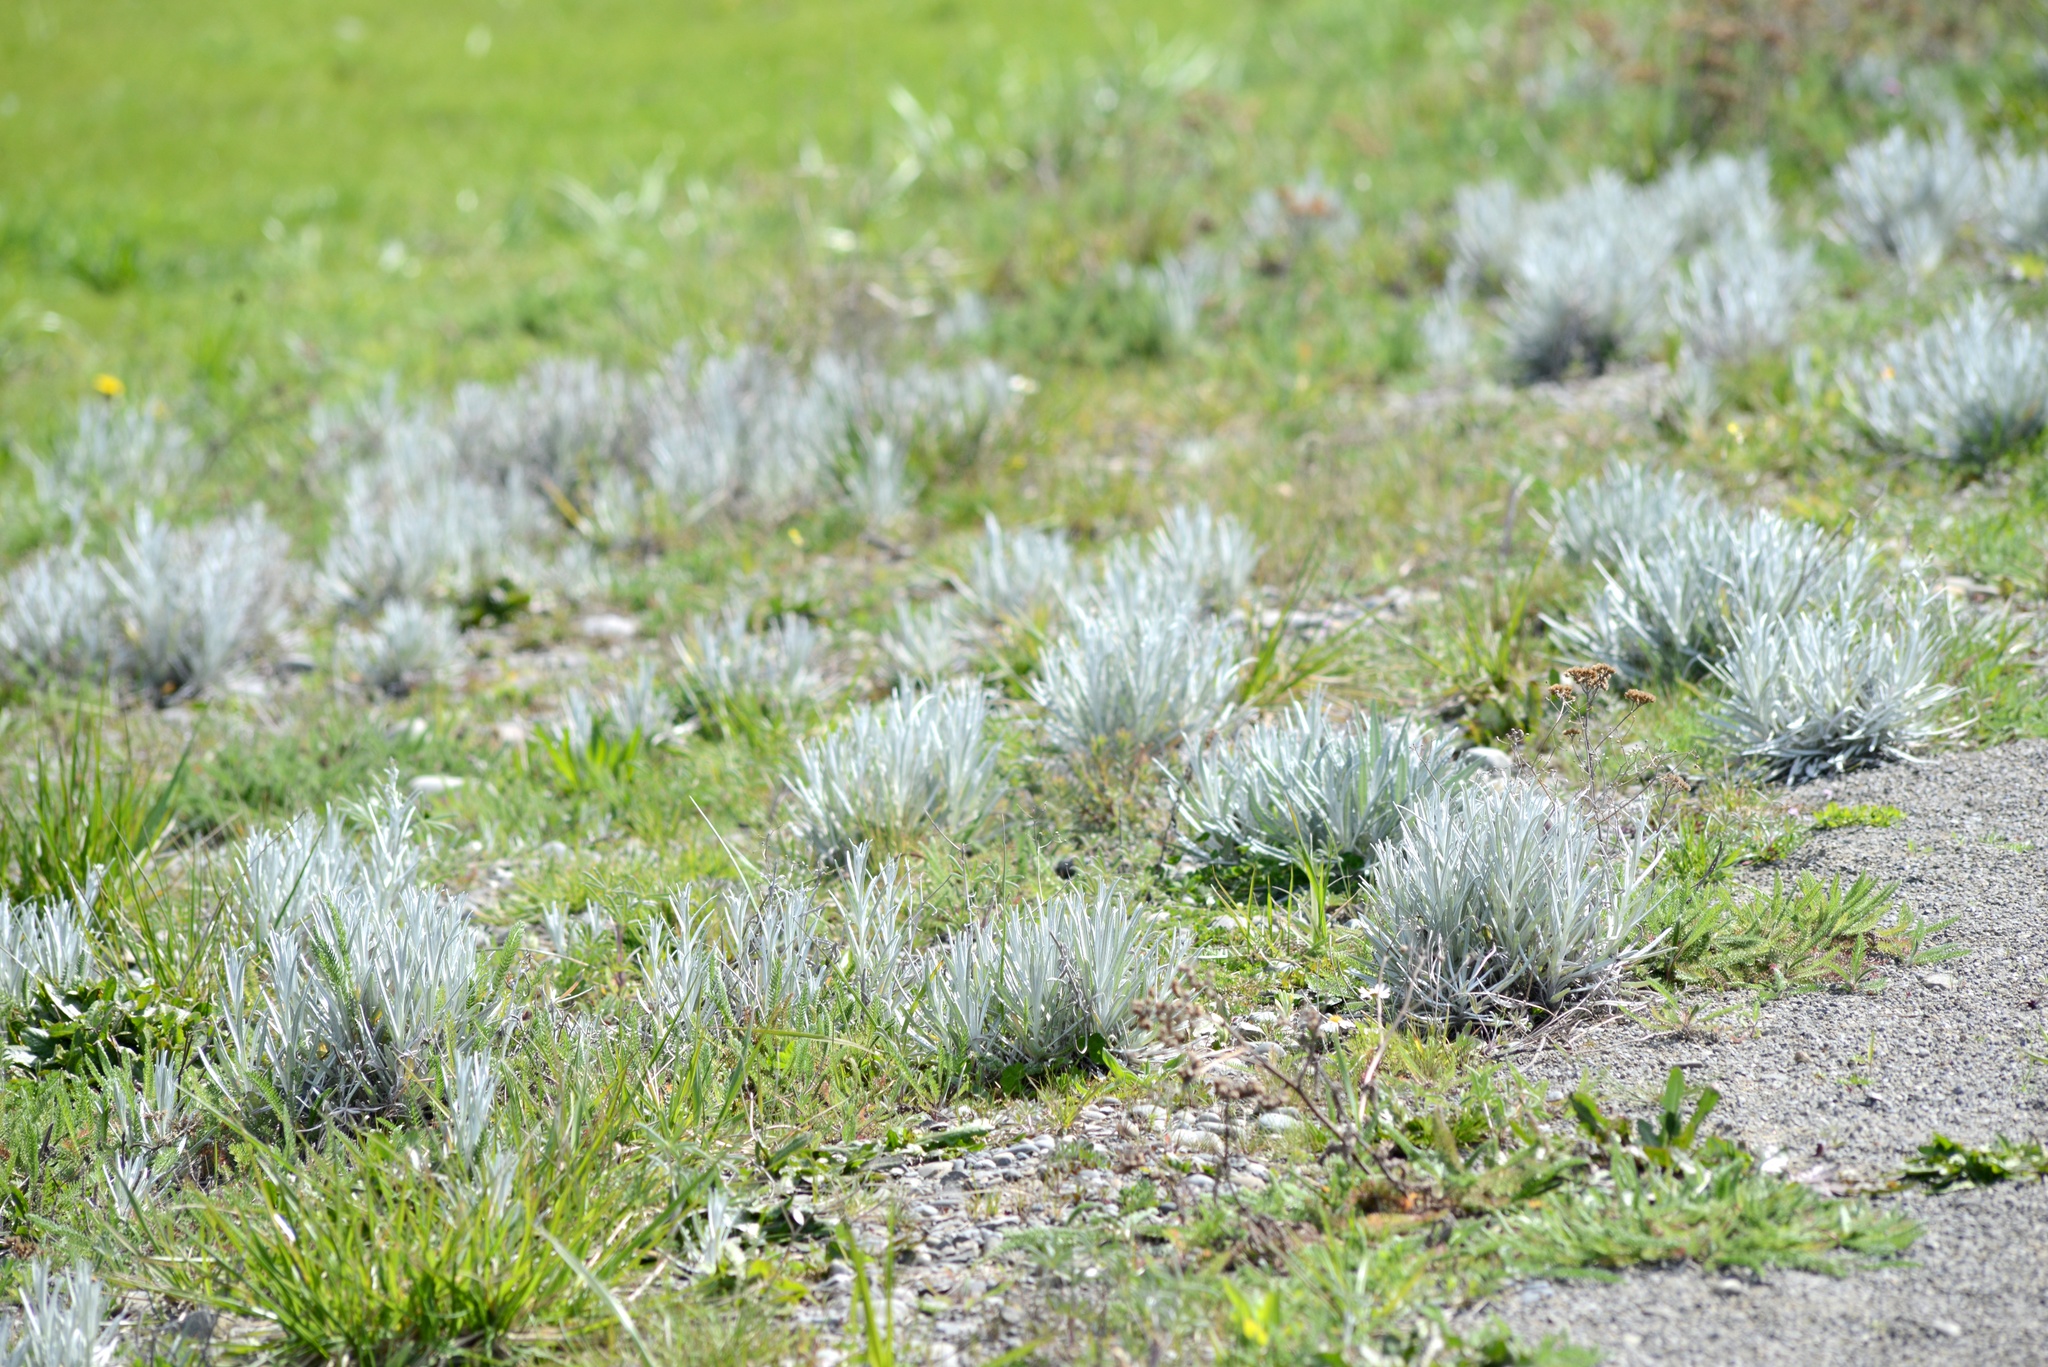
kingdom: Plantae
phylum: Tracheophyta
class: Magnoliopsida
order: Asterales
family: Asteraceae
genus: Senecio
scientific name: Senecio quadridentatus
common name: Cotton fireweed
